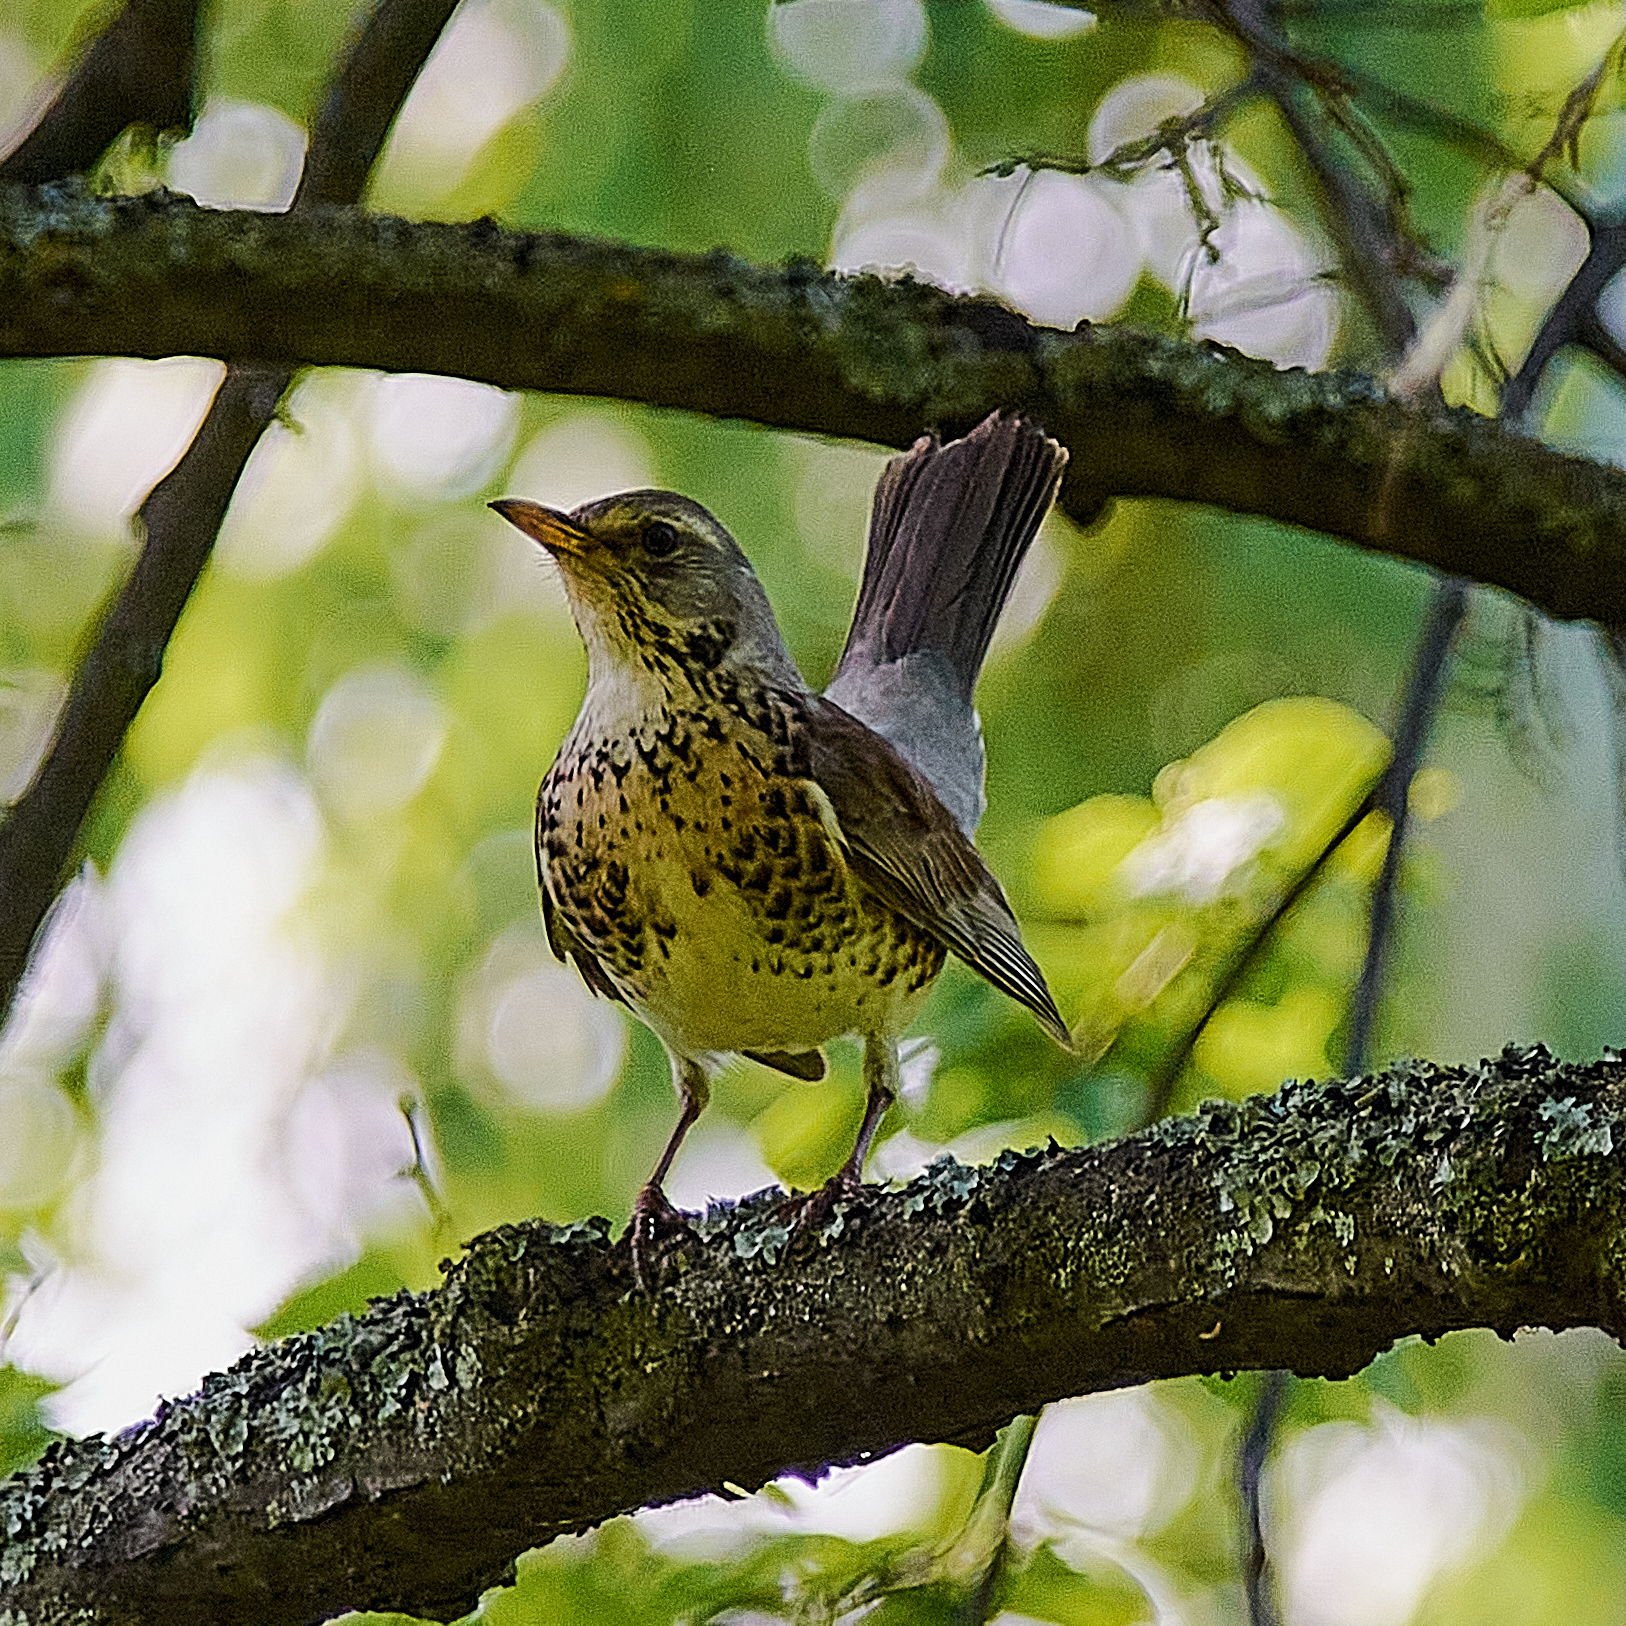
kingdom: Animalia
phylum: Chordata
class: Aves
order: Passeriformes
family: Turdidae
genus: Turdus
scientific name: Turdus pilaris
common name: Fieldfare
